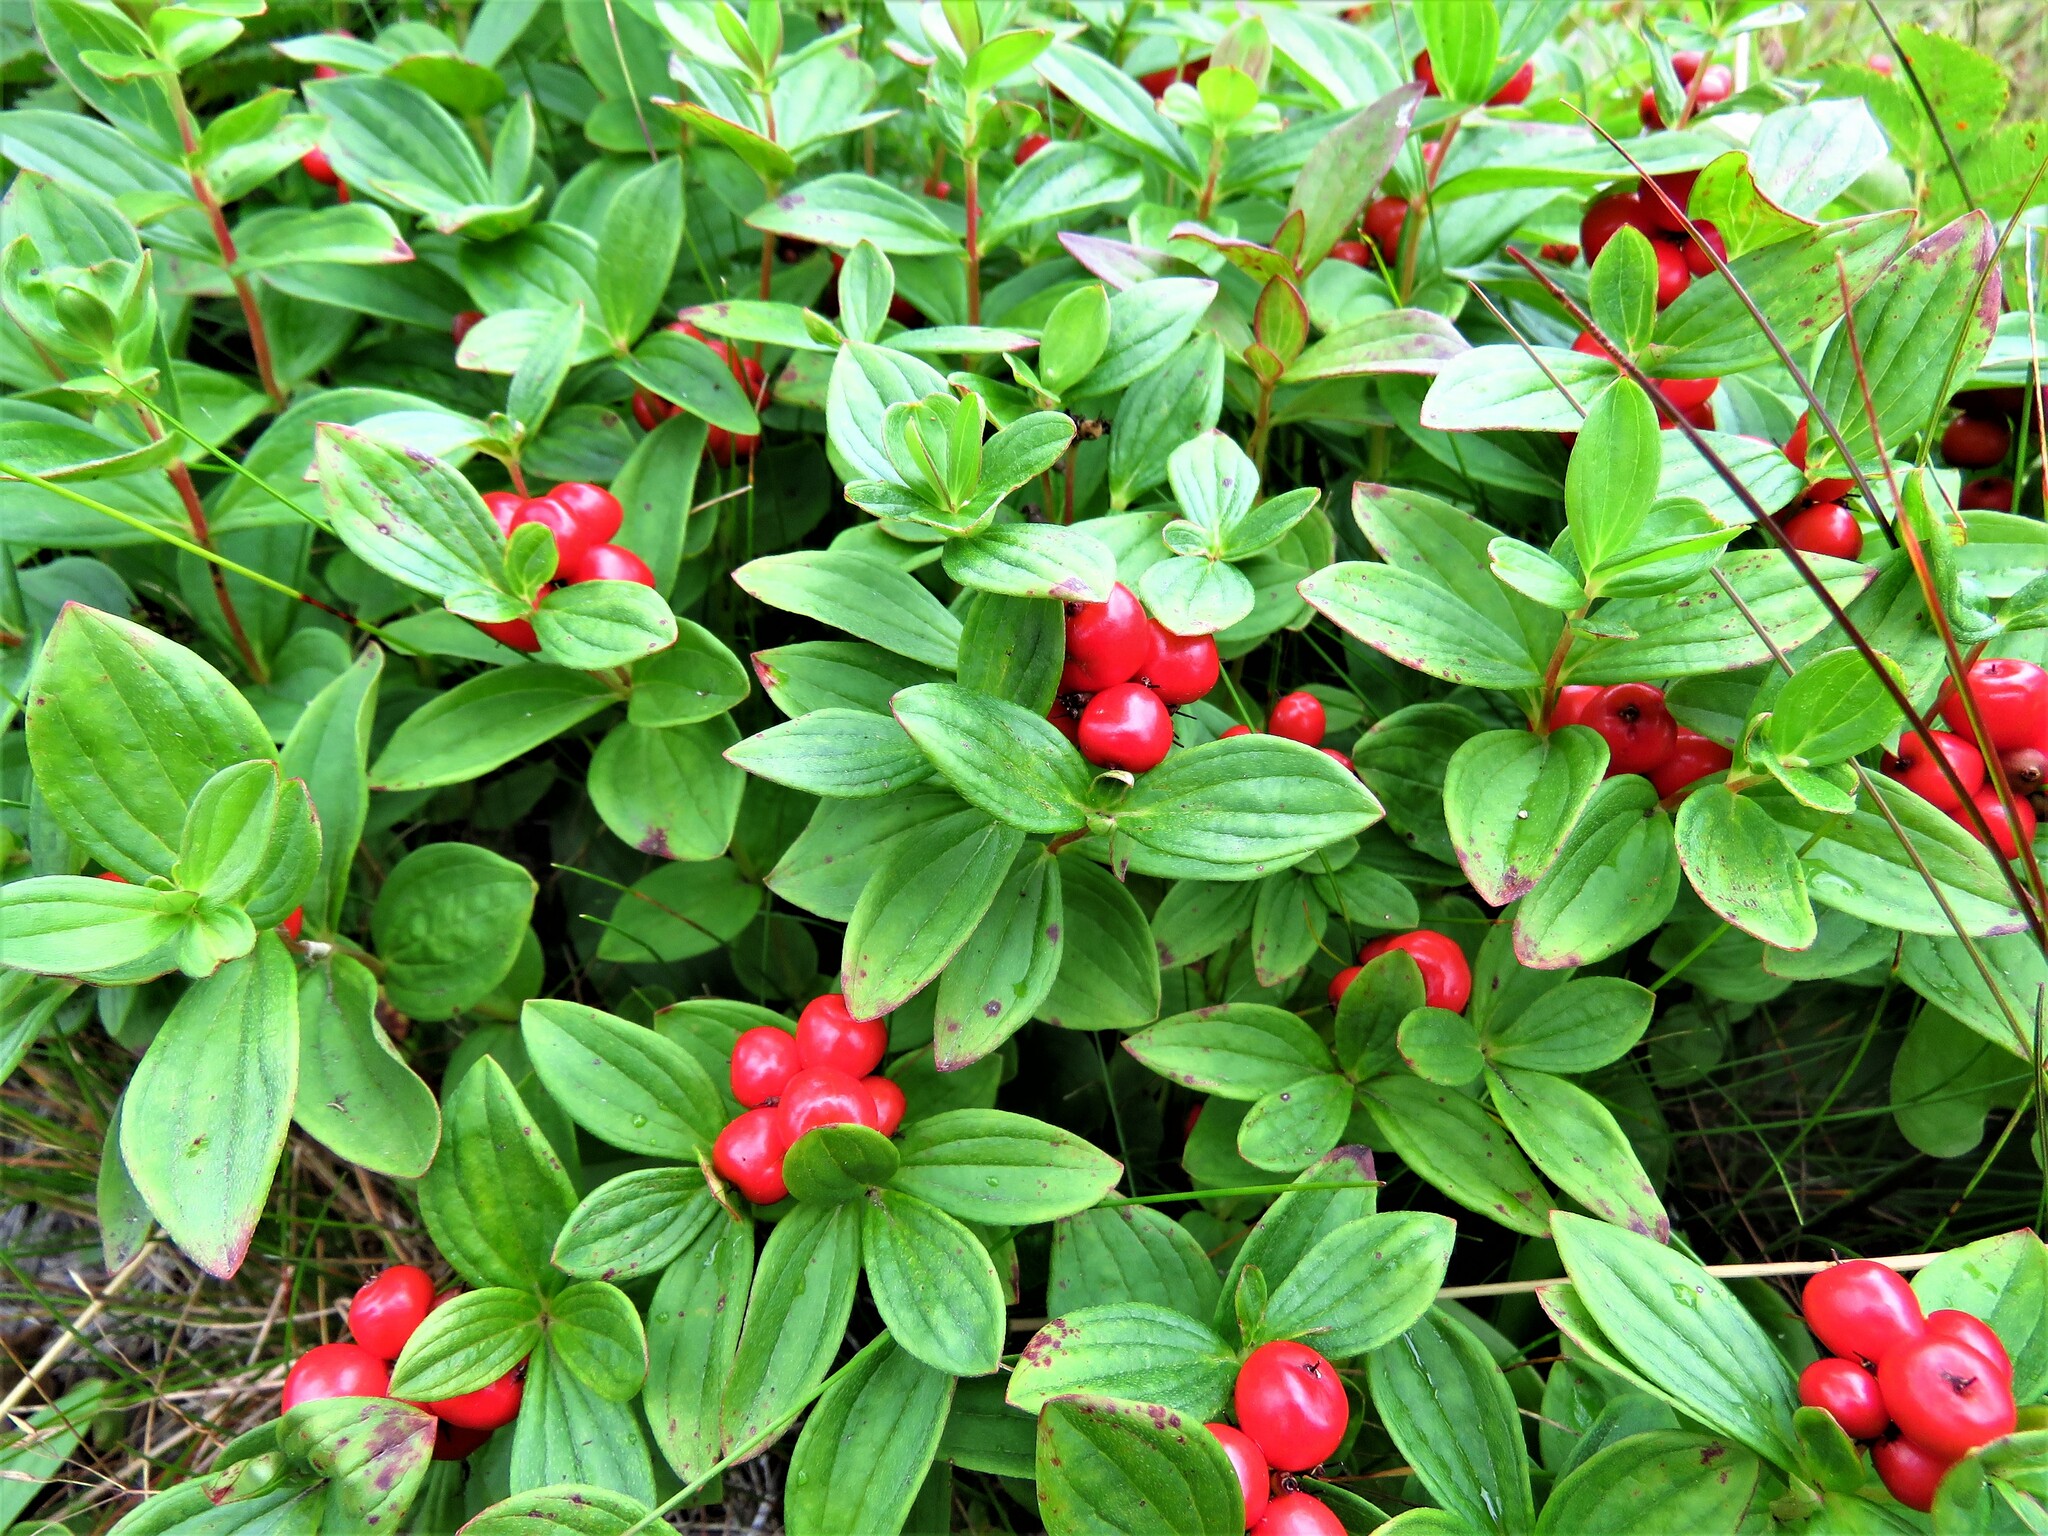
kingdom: Plantae
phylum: Tracheophyta
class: Magnoliopsida
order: Cornales
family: Cornaceae
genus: Cornus
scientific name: Cornus suecica
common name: Dwarf cornel
